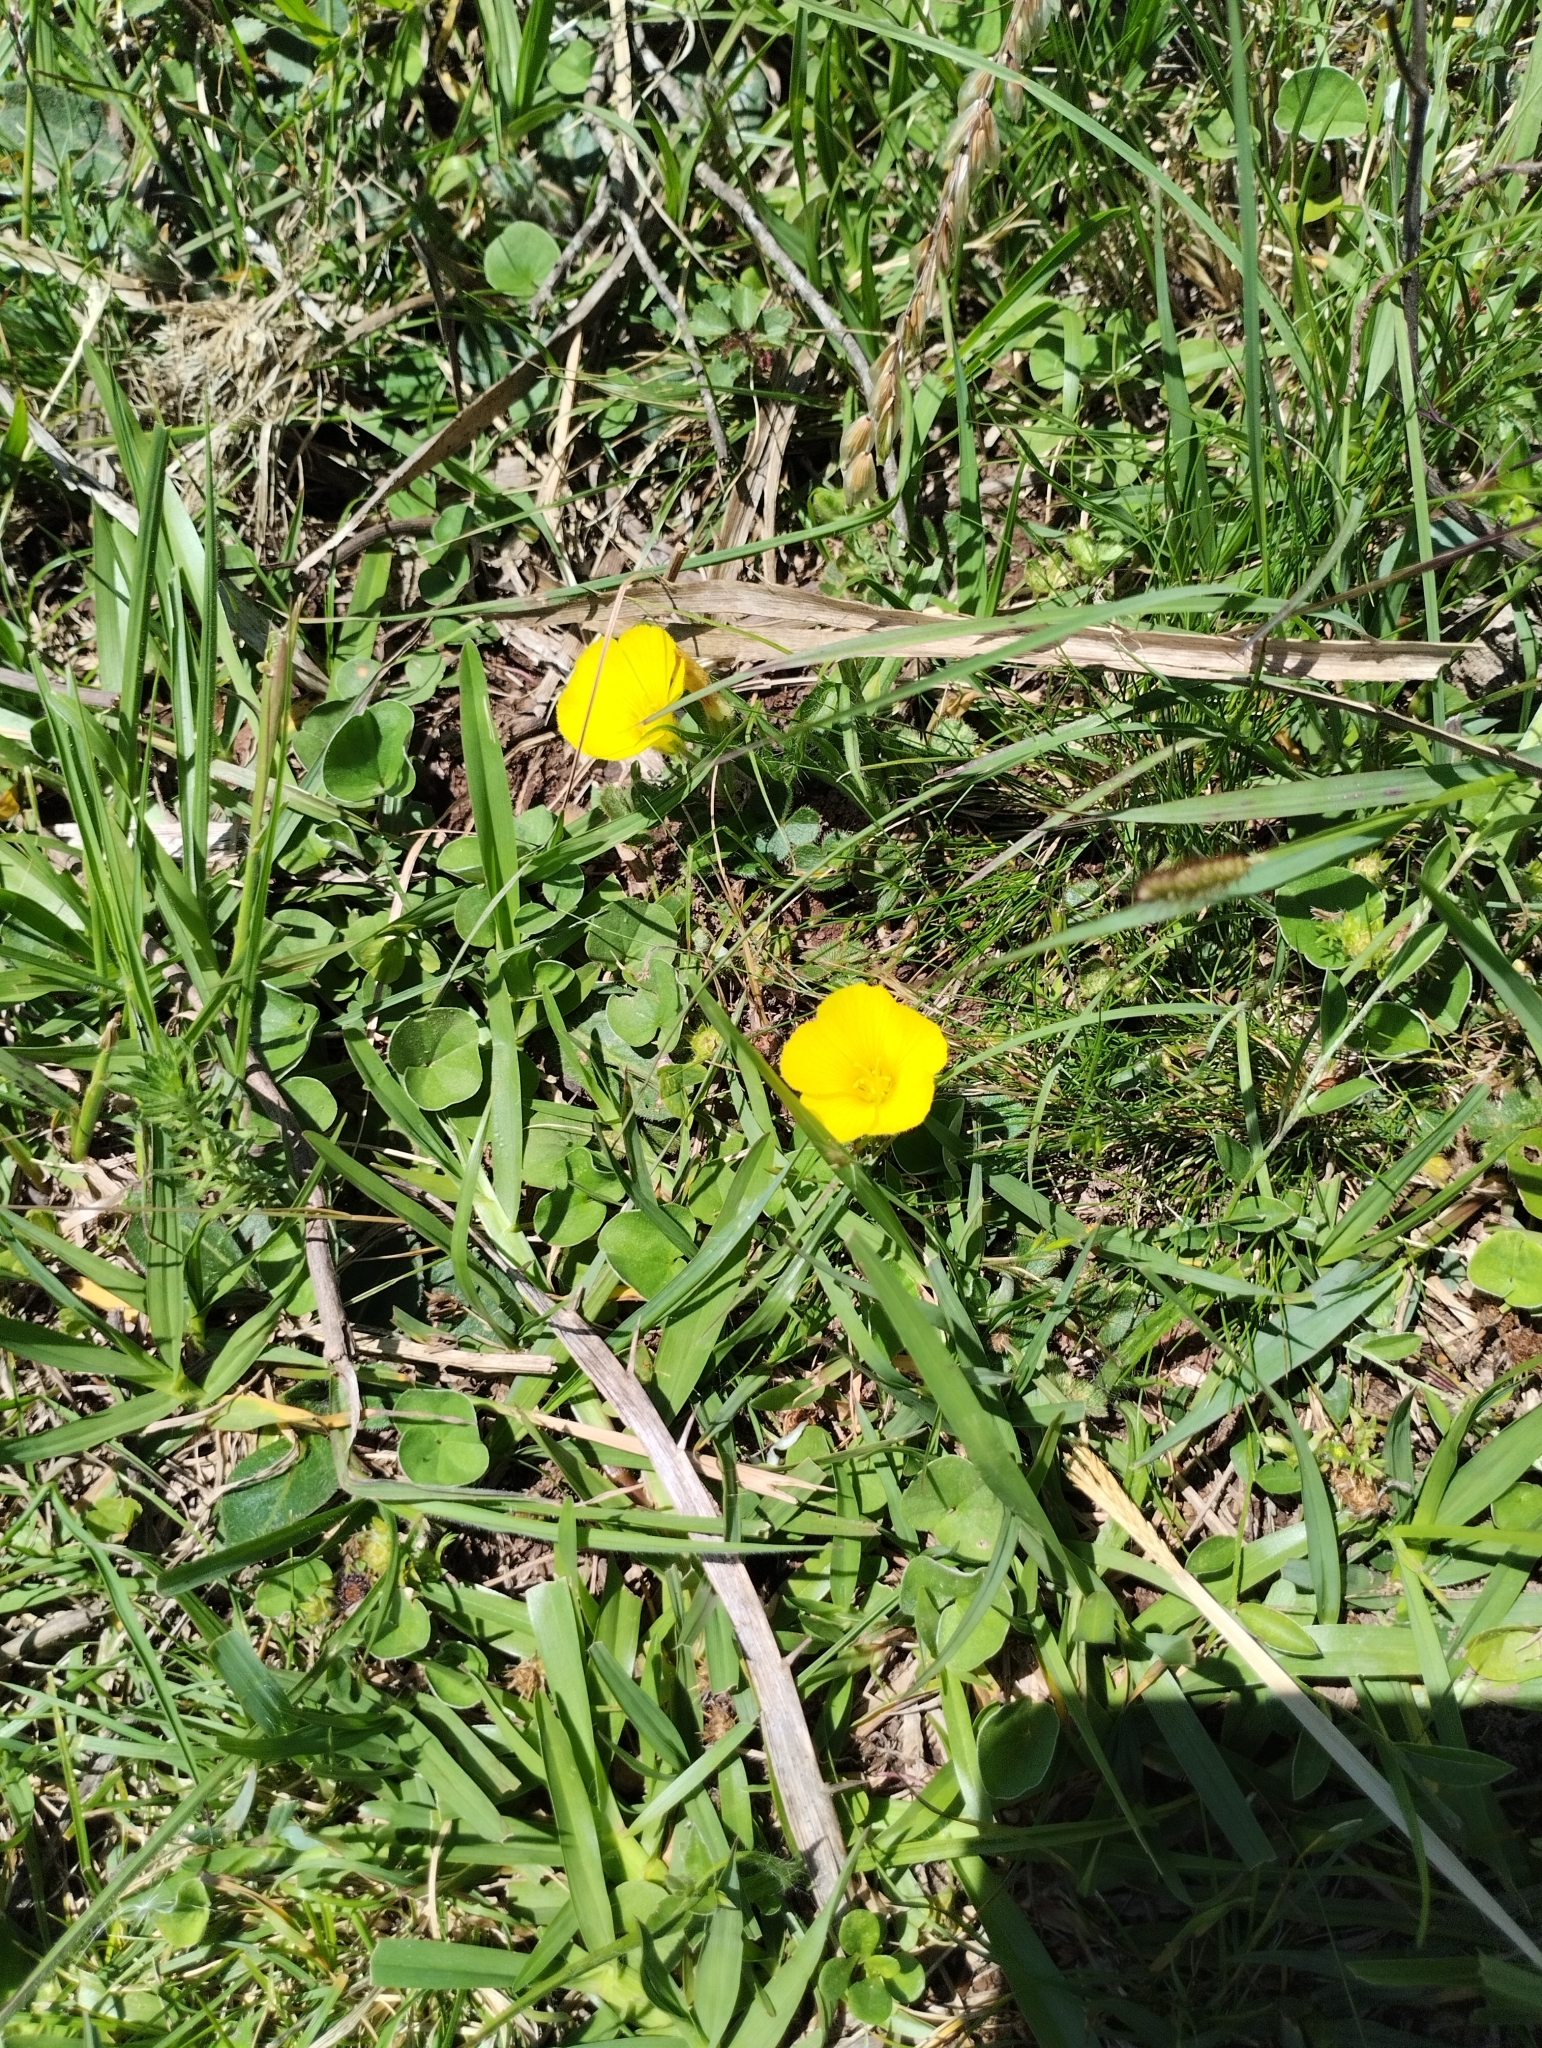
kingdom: Plantae
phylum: Tracheophyta
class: Magnoliopsida
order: Oxalidales
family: Oxalidaceae
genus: Oxalis
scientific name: Oxalis eriocarpa
